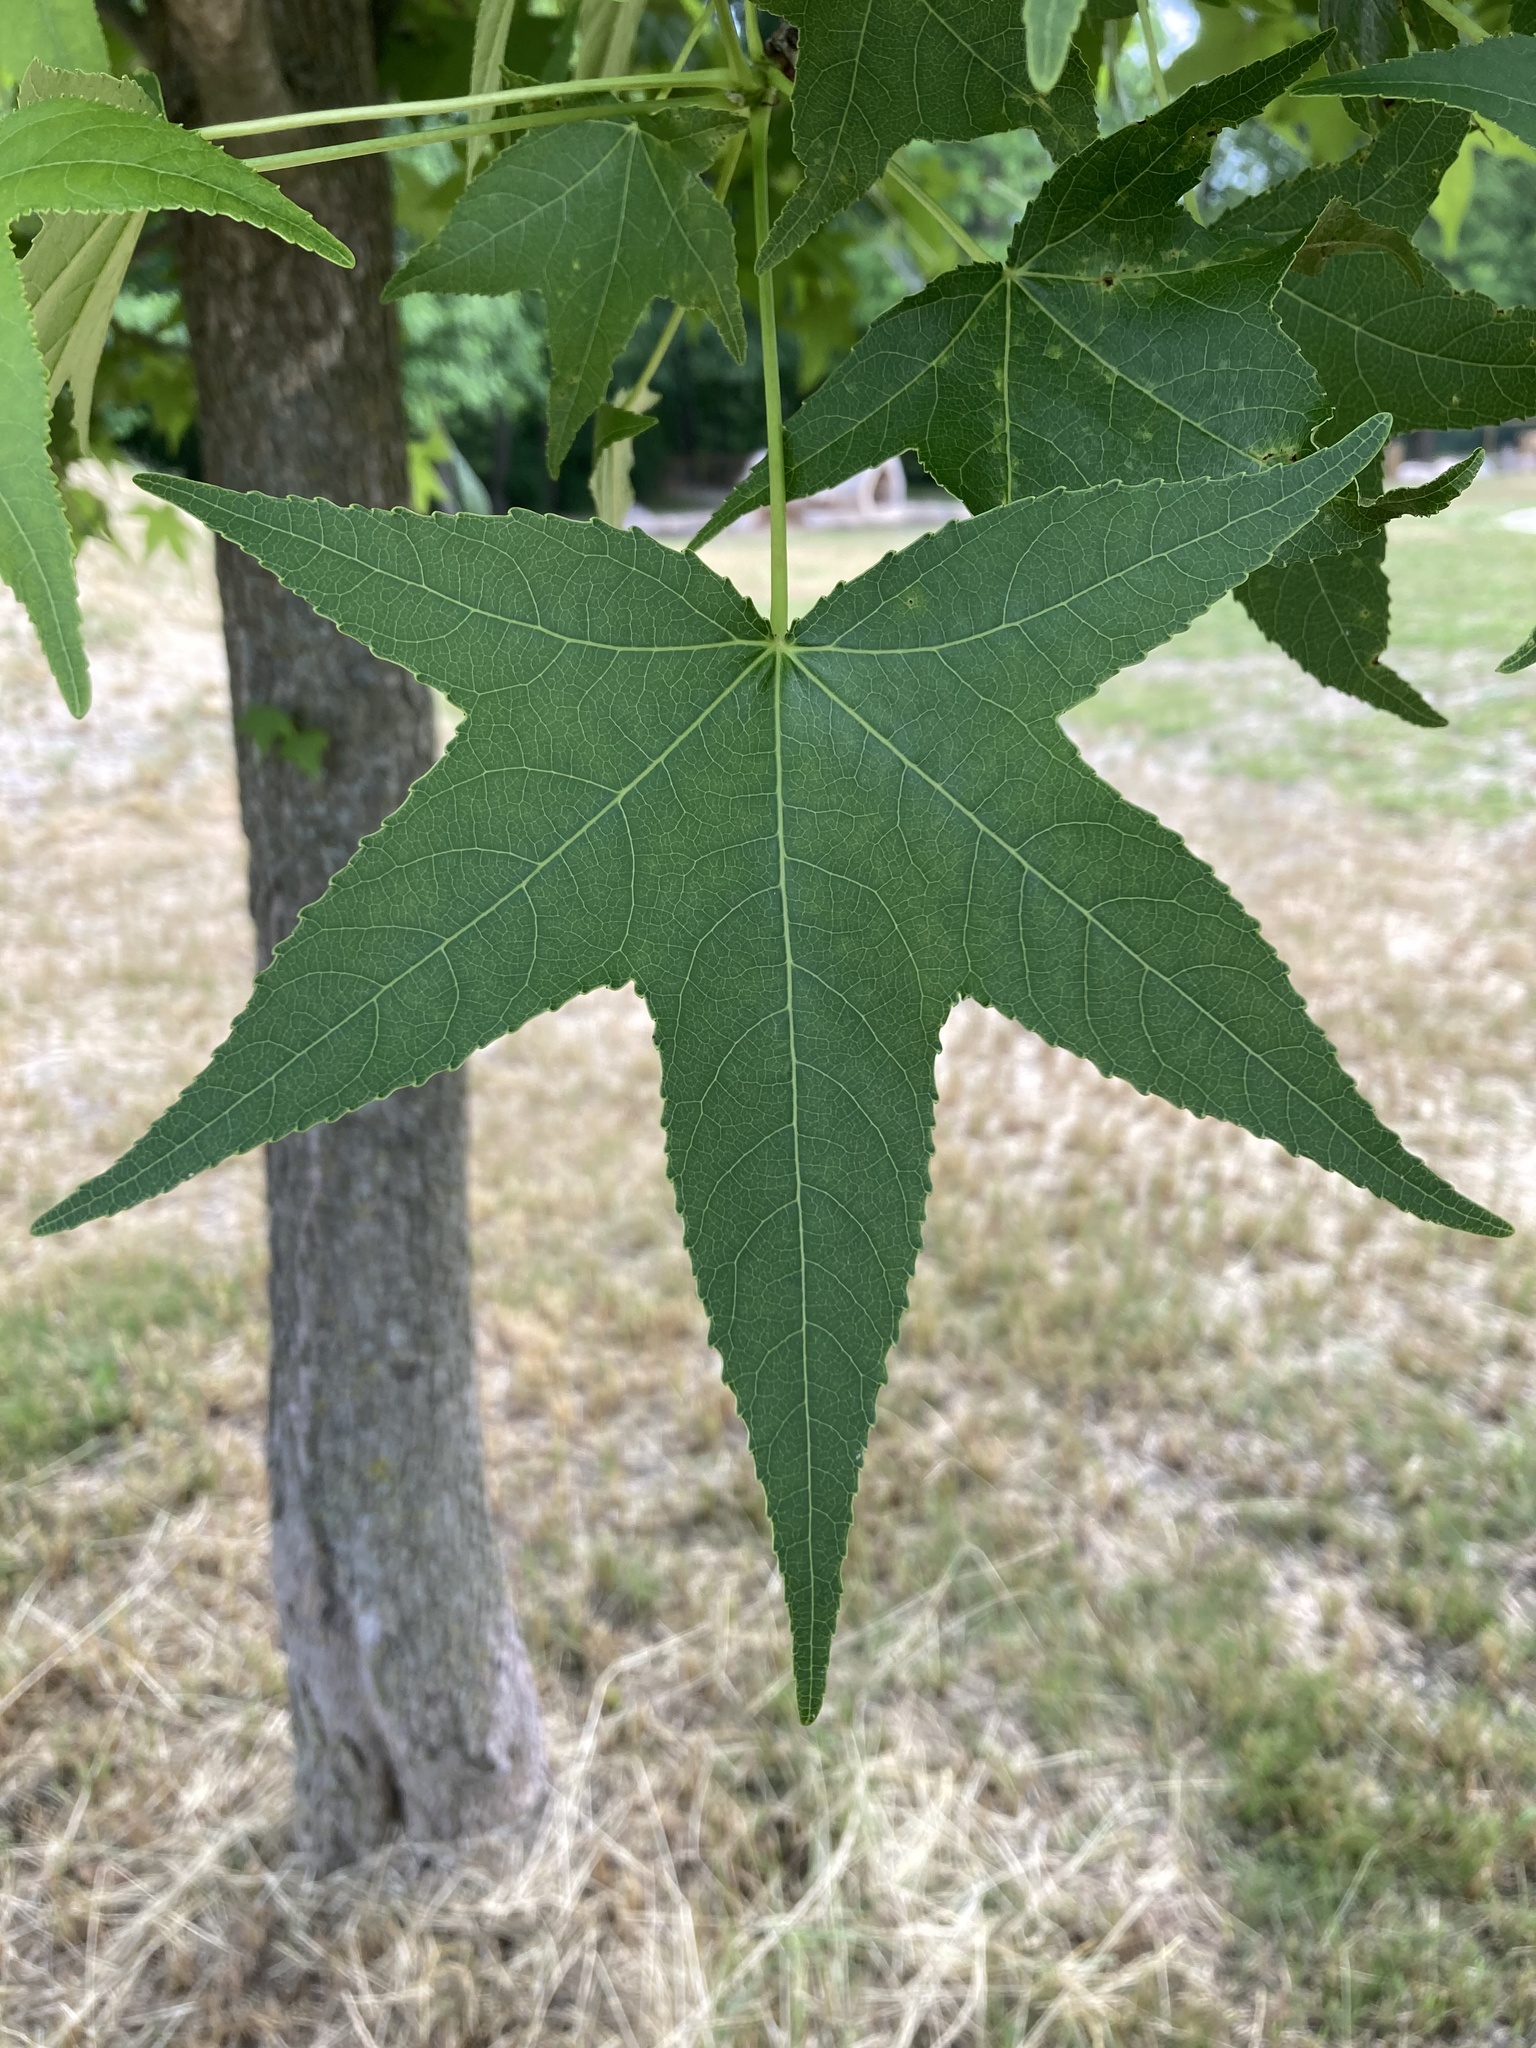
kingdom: Plantae
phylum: Tracheophyta
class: Magnoliopsida
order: Saxifragales
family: Altingiaceae
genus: Liquidambar
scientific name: Liquidambar styraciflua
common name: Sweet gum
